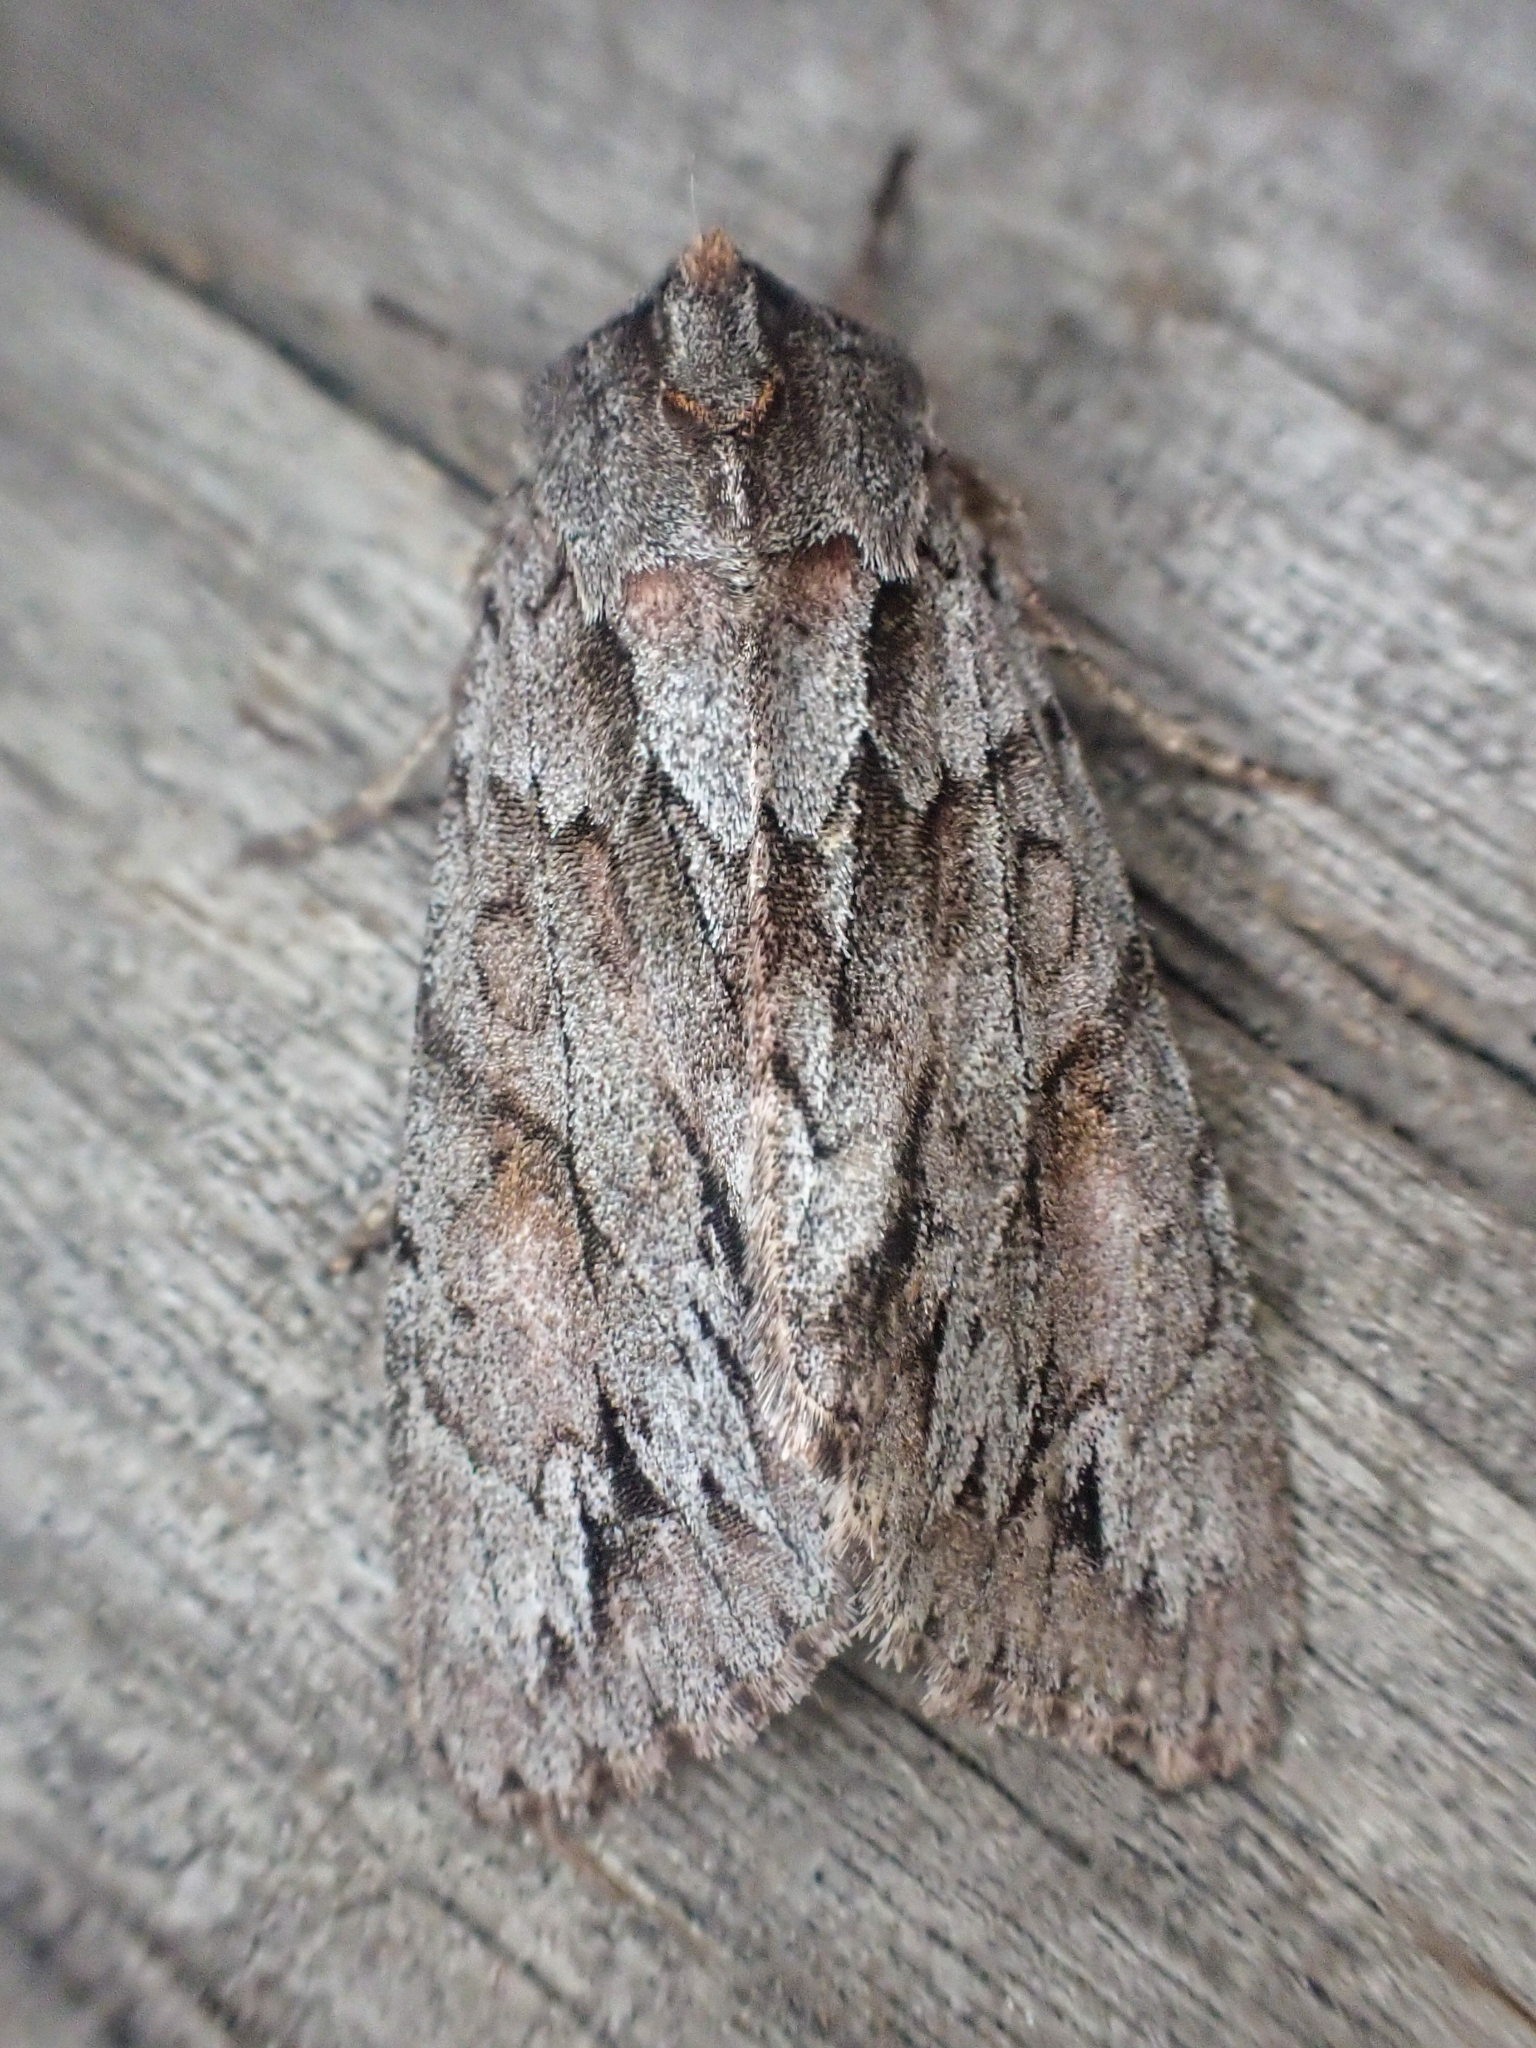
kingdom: Animalia
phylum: Arthropoda
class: Insecta
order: Lepidoptera
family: Noctuidae
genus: Andropolia
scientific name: Andropolia theodori
